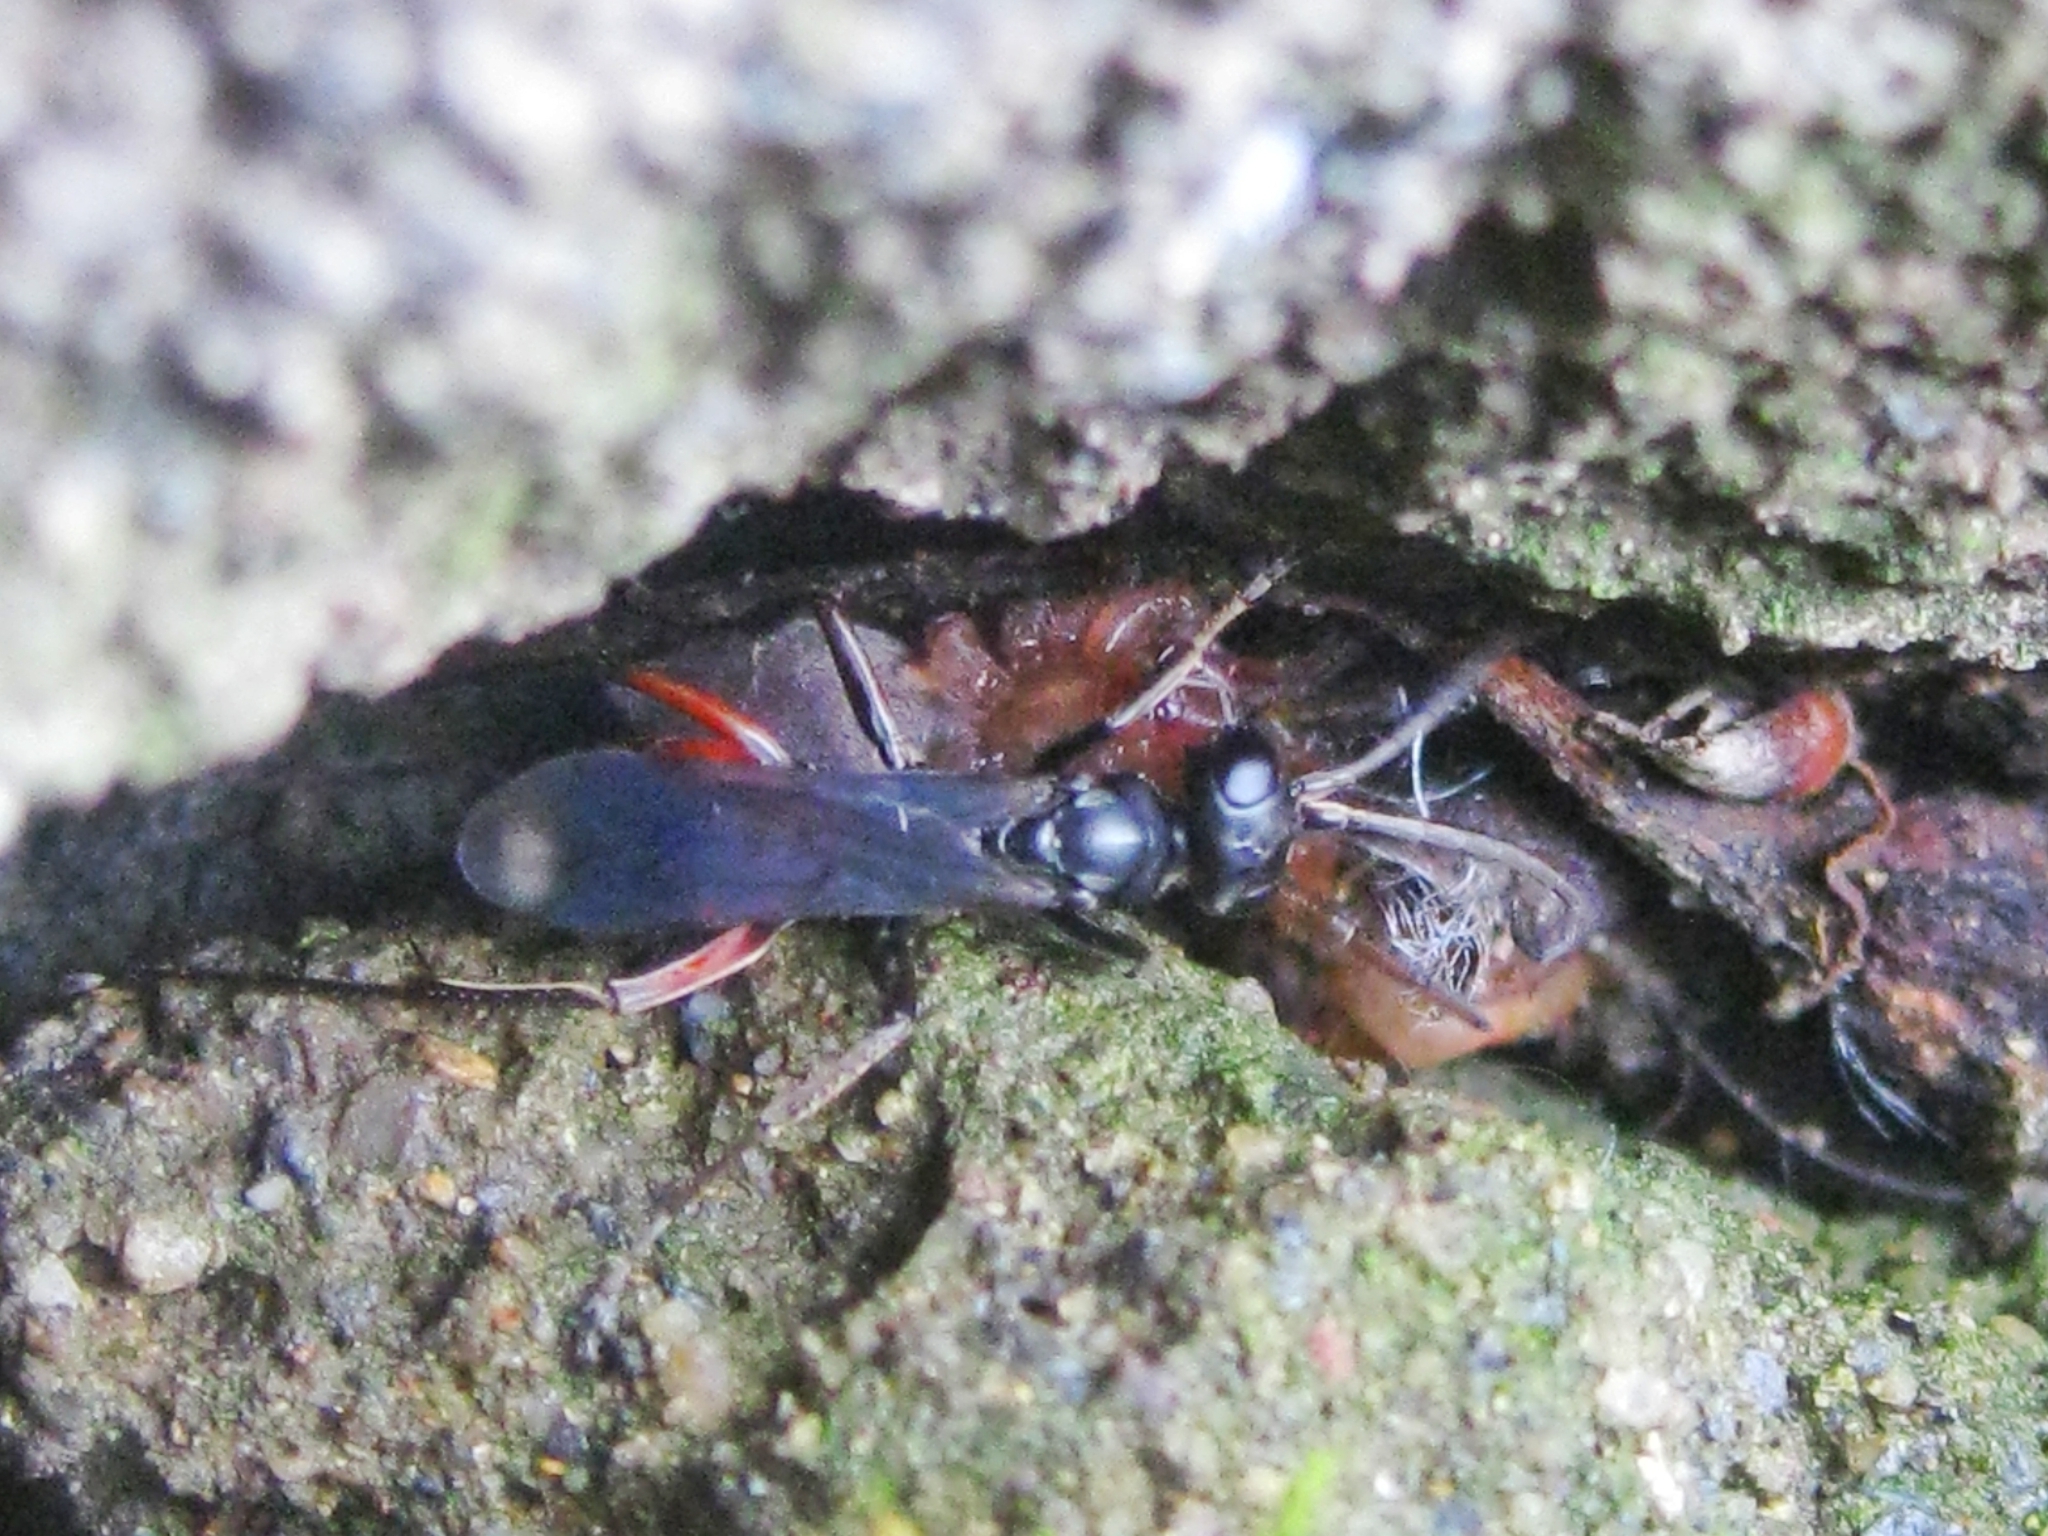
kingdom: Animalia
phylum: Arthropoda
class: Insecta
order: Hymenoptera
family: Pompilidae
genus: Priocnemis
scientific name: Priocnemis
